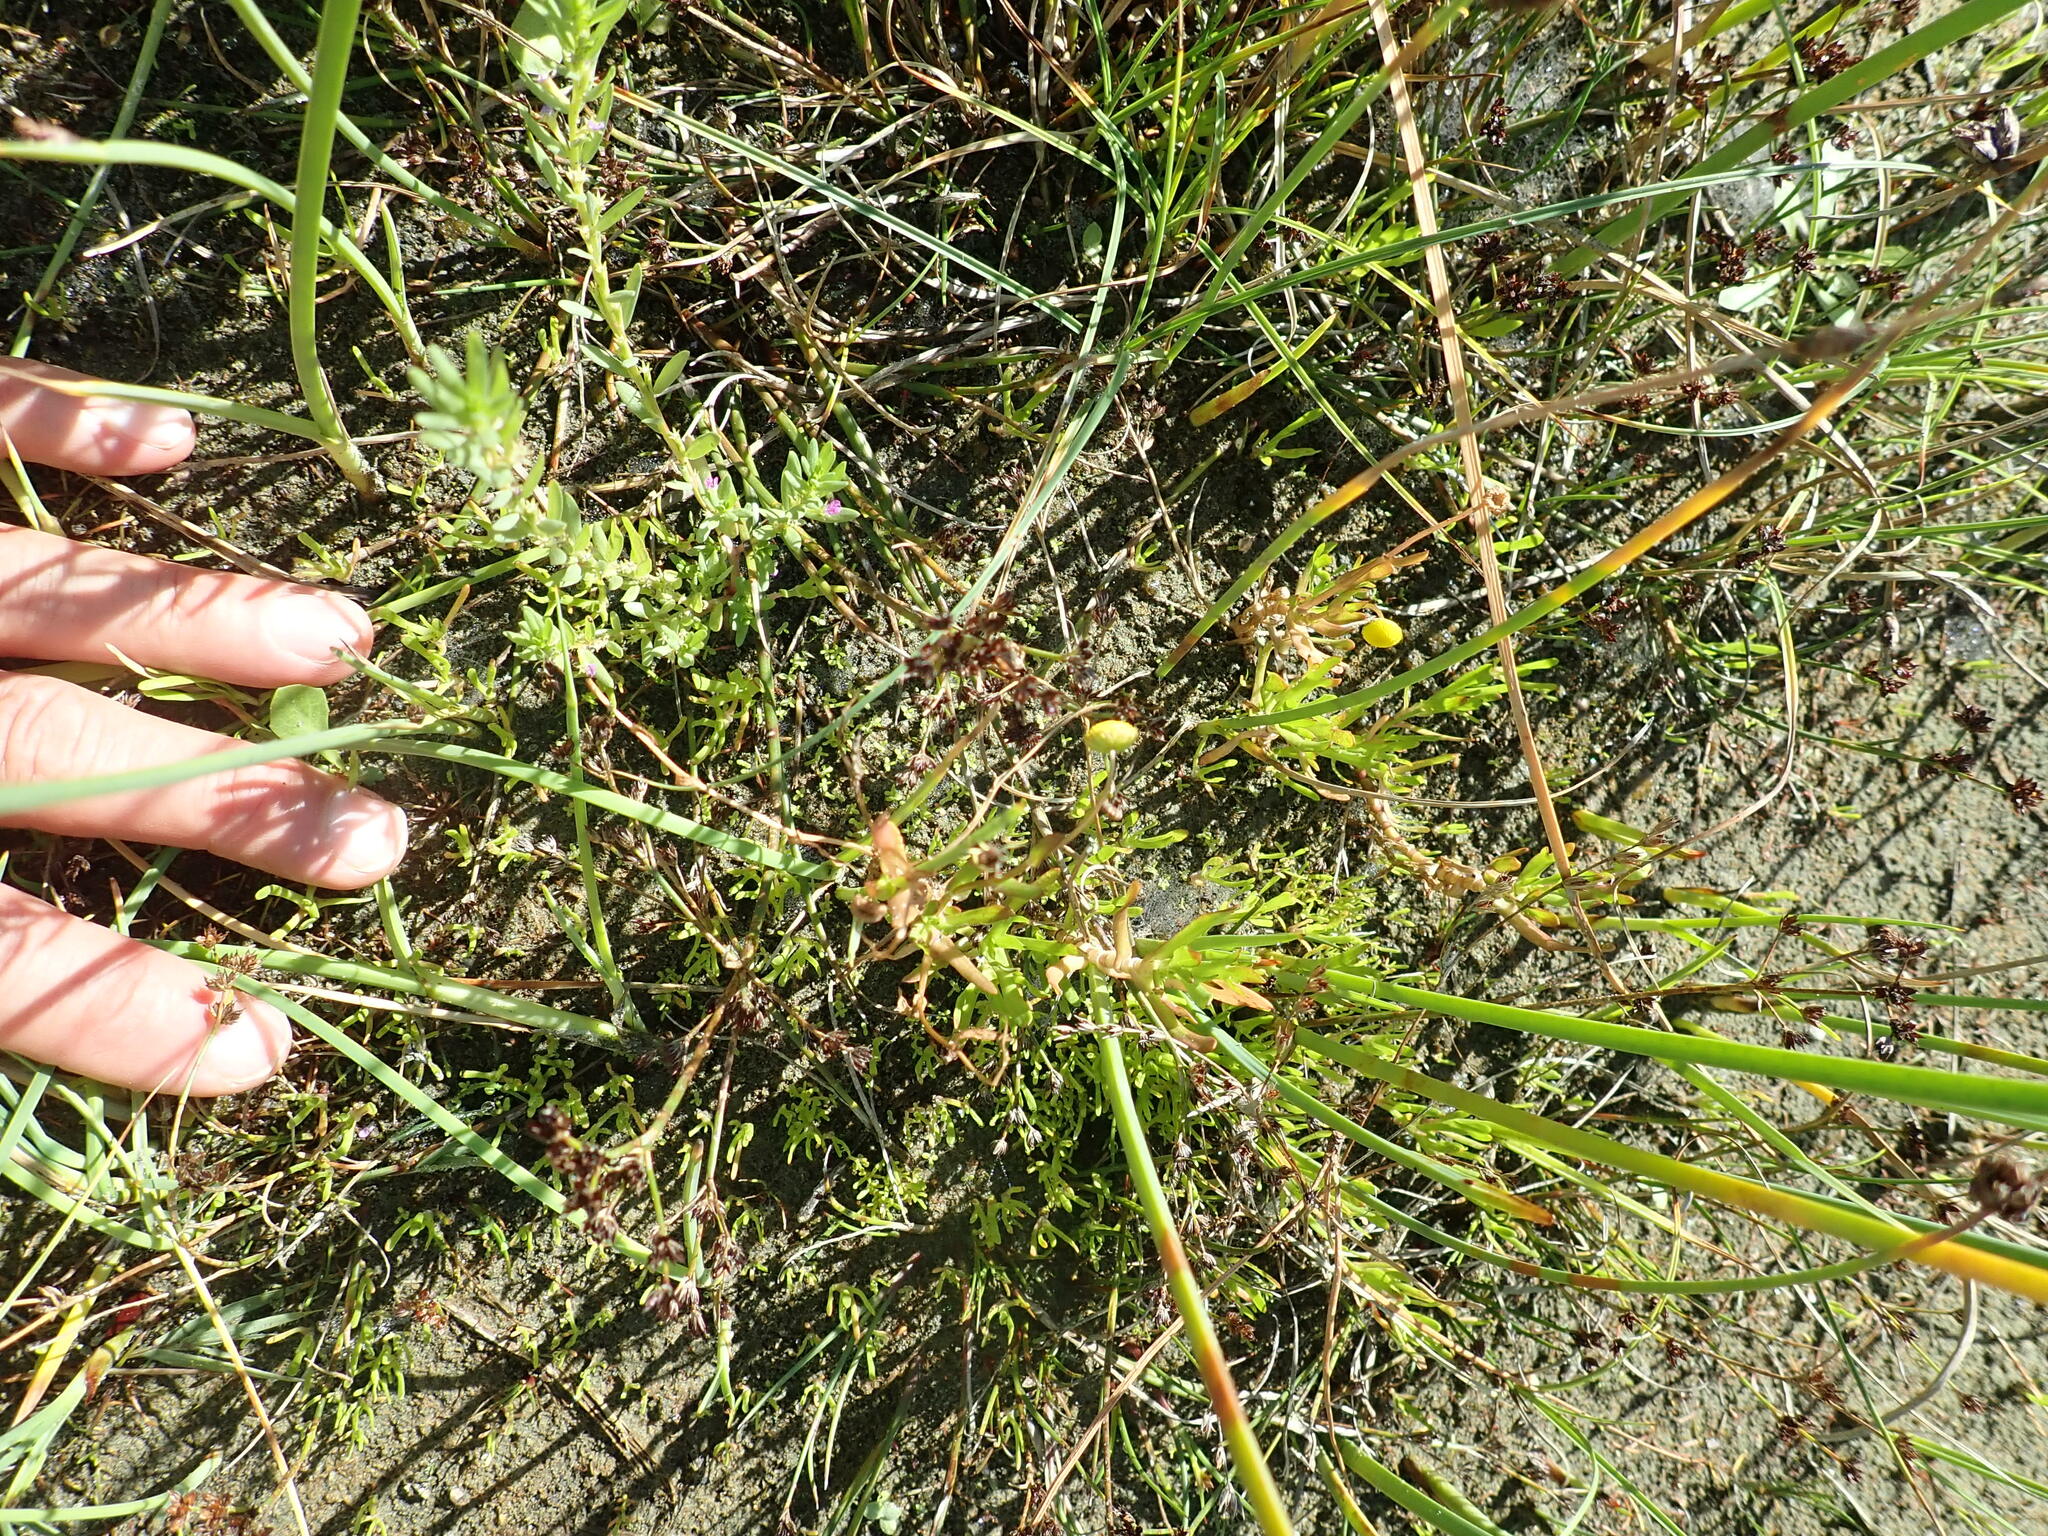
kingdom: Plantae
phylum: Tracheophyta
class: Magnoliopsida
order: Asterales
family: Asteraceae
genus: Cotula
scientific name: Cotula coronopifolia
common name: Buttonweed
